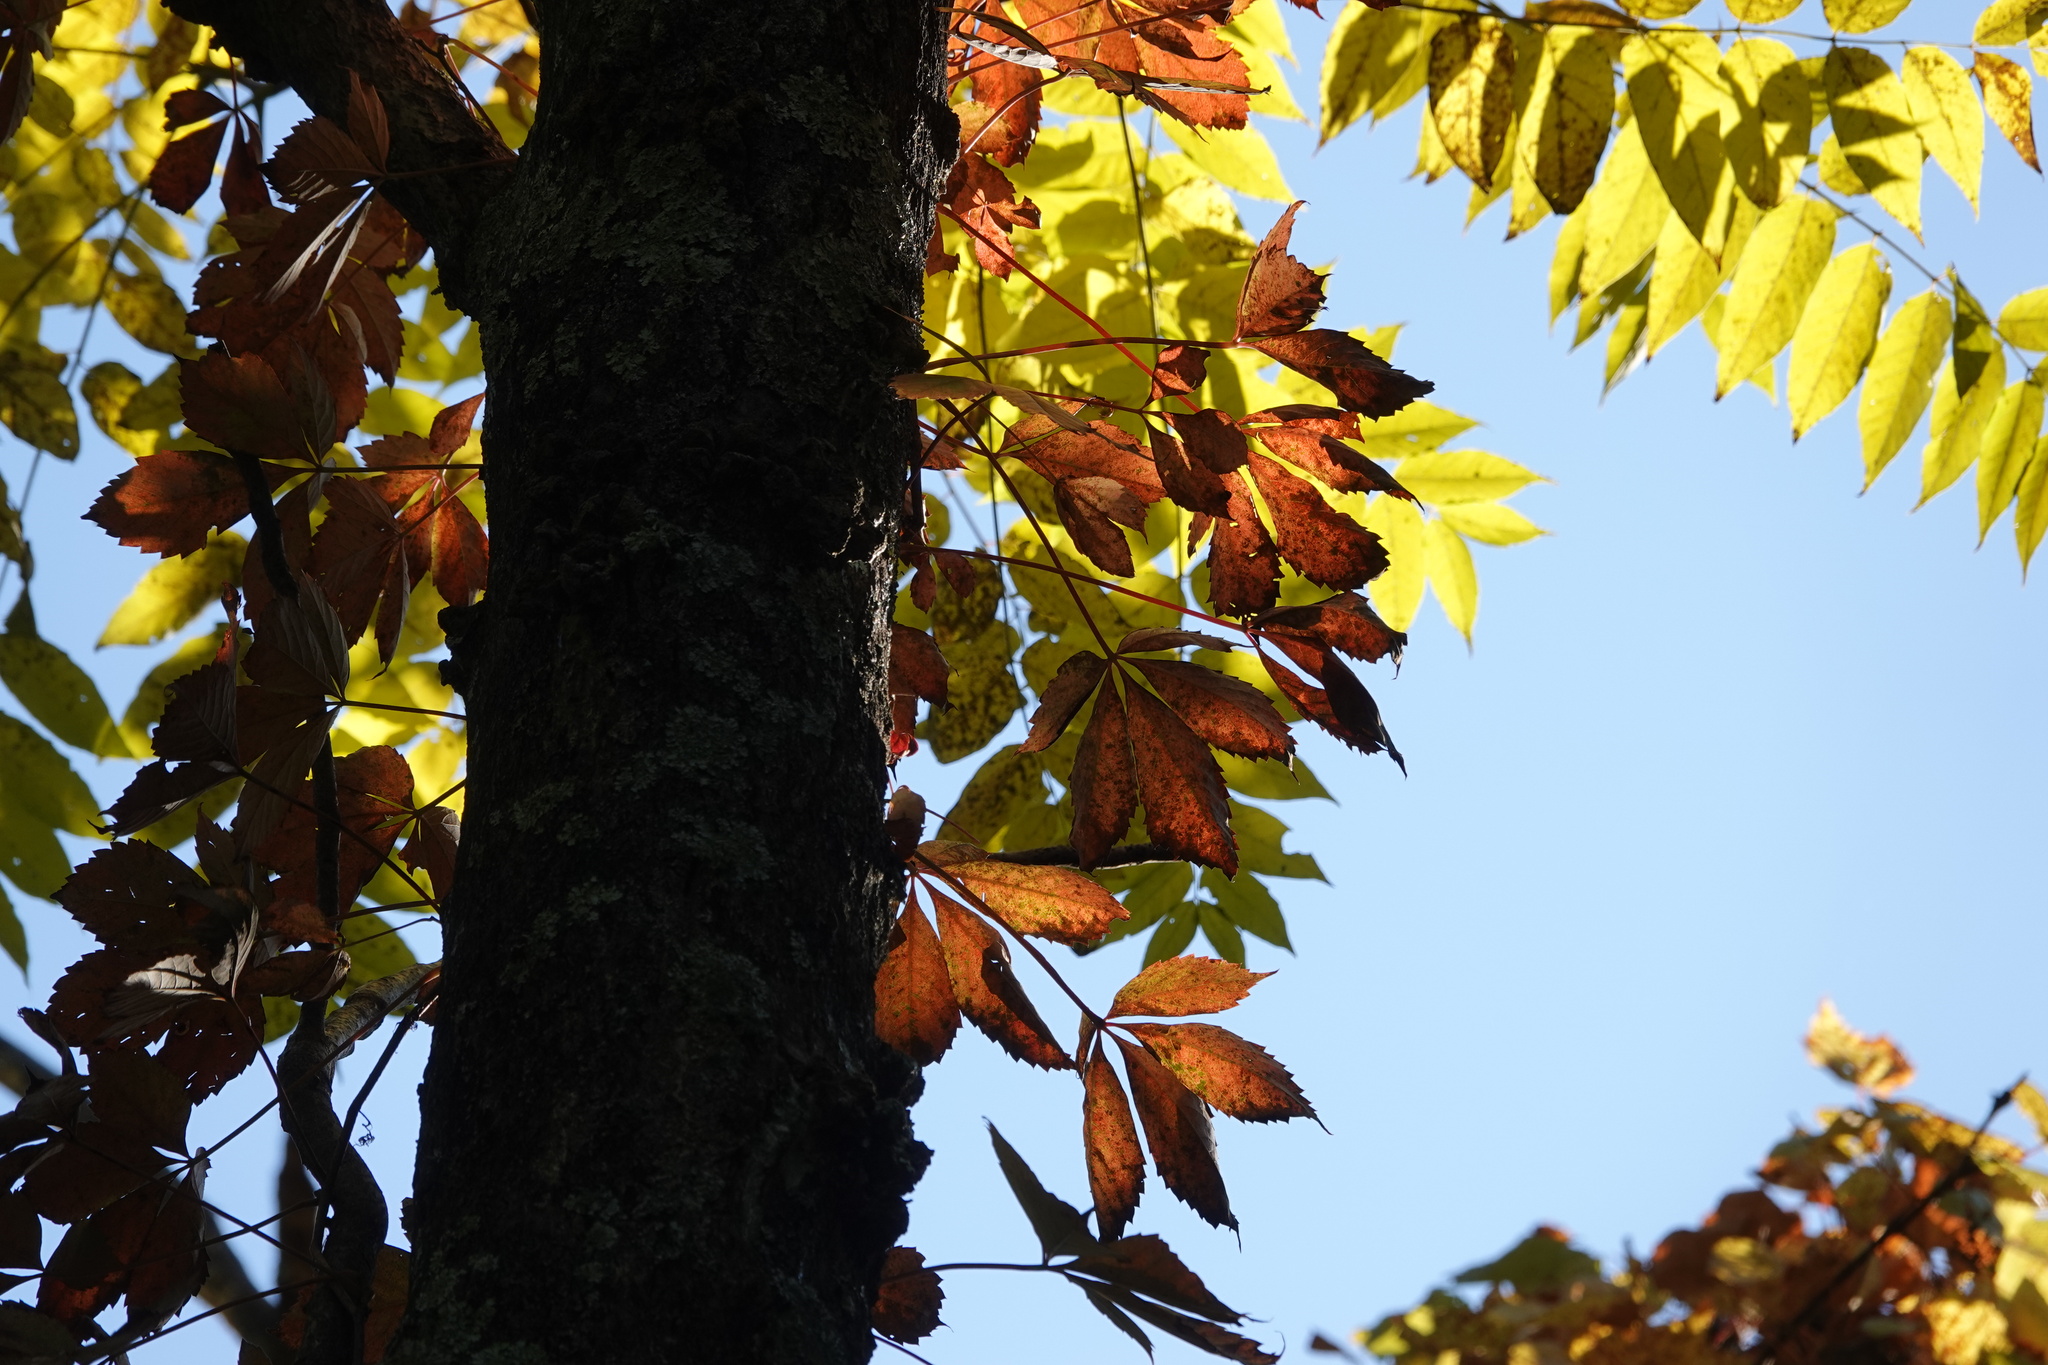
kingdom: Plantae
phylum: Tracheophyta
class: Magnoliopsida
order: Vitales
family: Vitaceae
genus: Parthenocissus
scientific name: Parthenocissus quinquefolia
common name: Virginia-creeper
